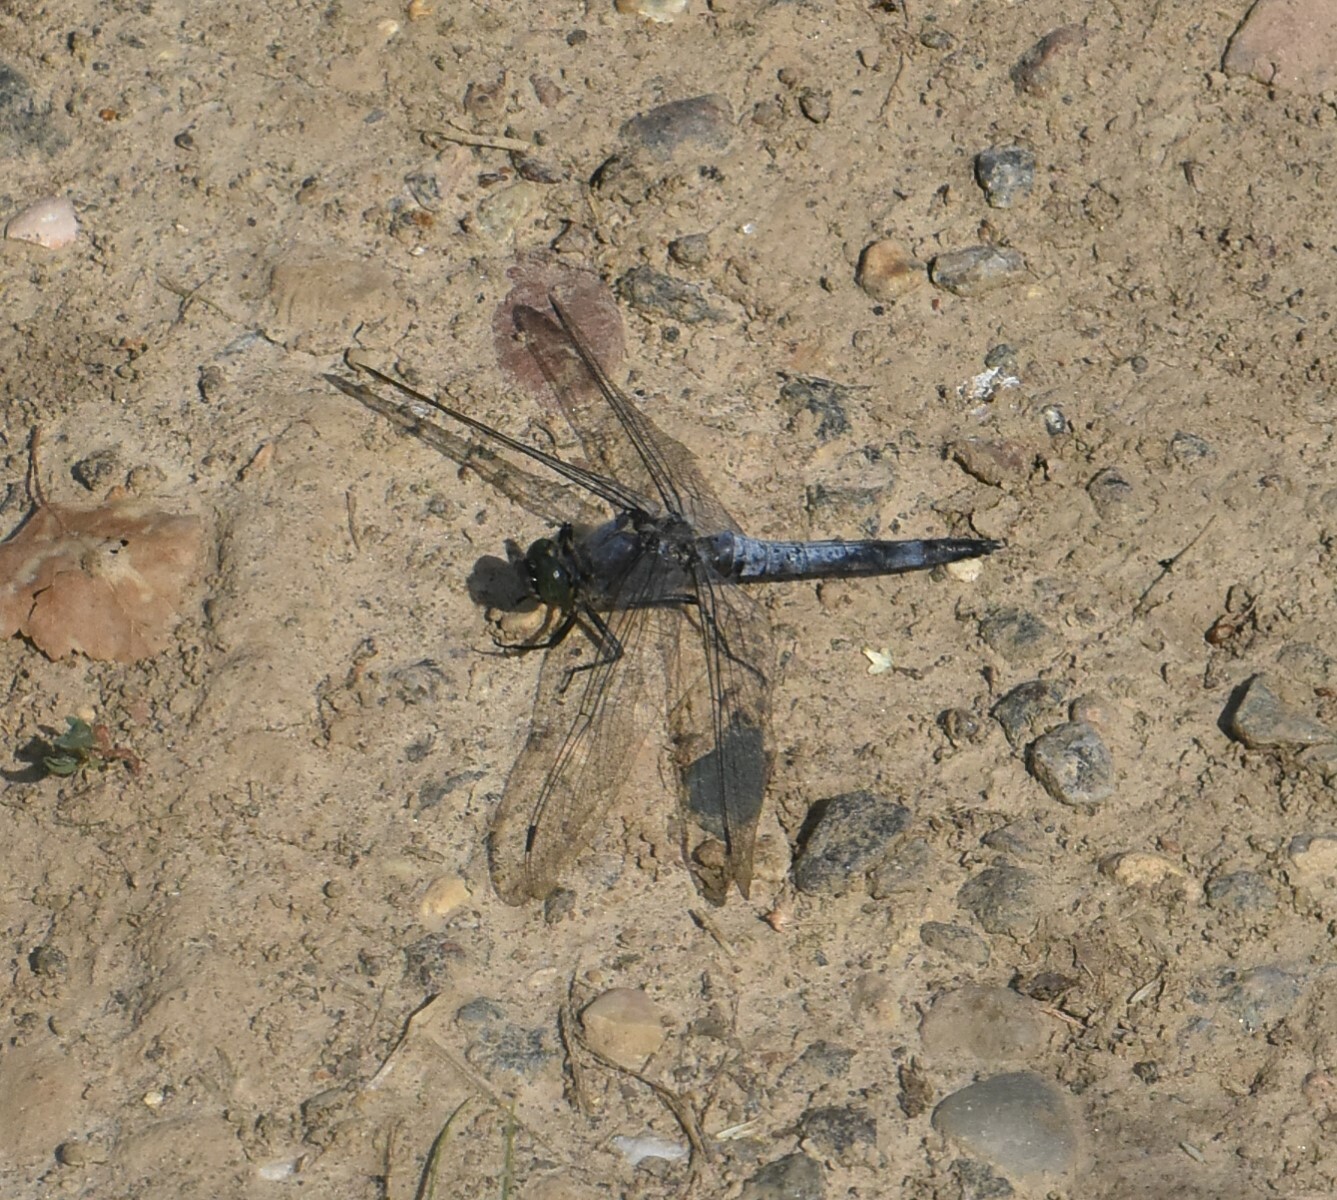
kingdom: Animalia
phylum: Arthropoda
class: Insecta
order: Odonata
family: Libellulidae
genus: Orthetrum
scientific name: Orthetrum cancellatum
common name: Black-tailed skimmer
